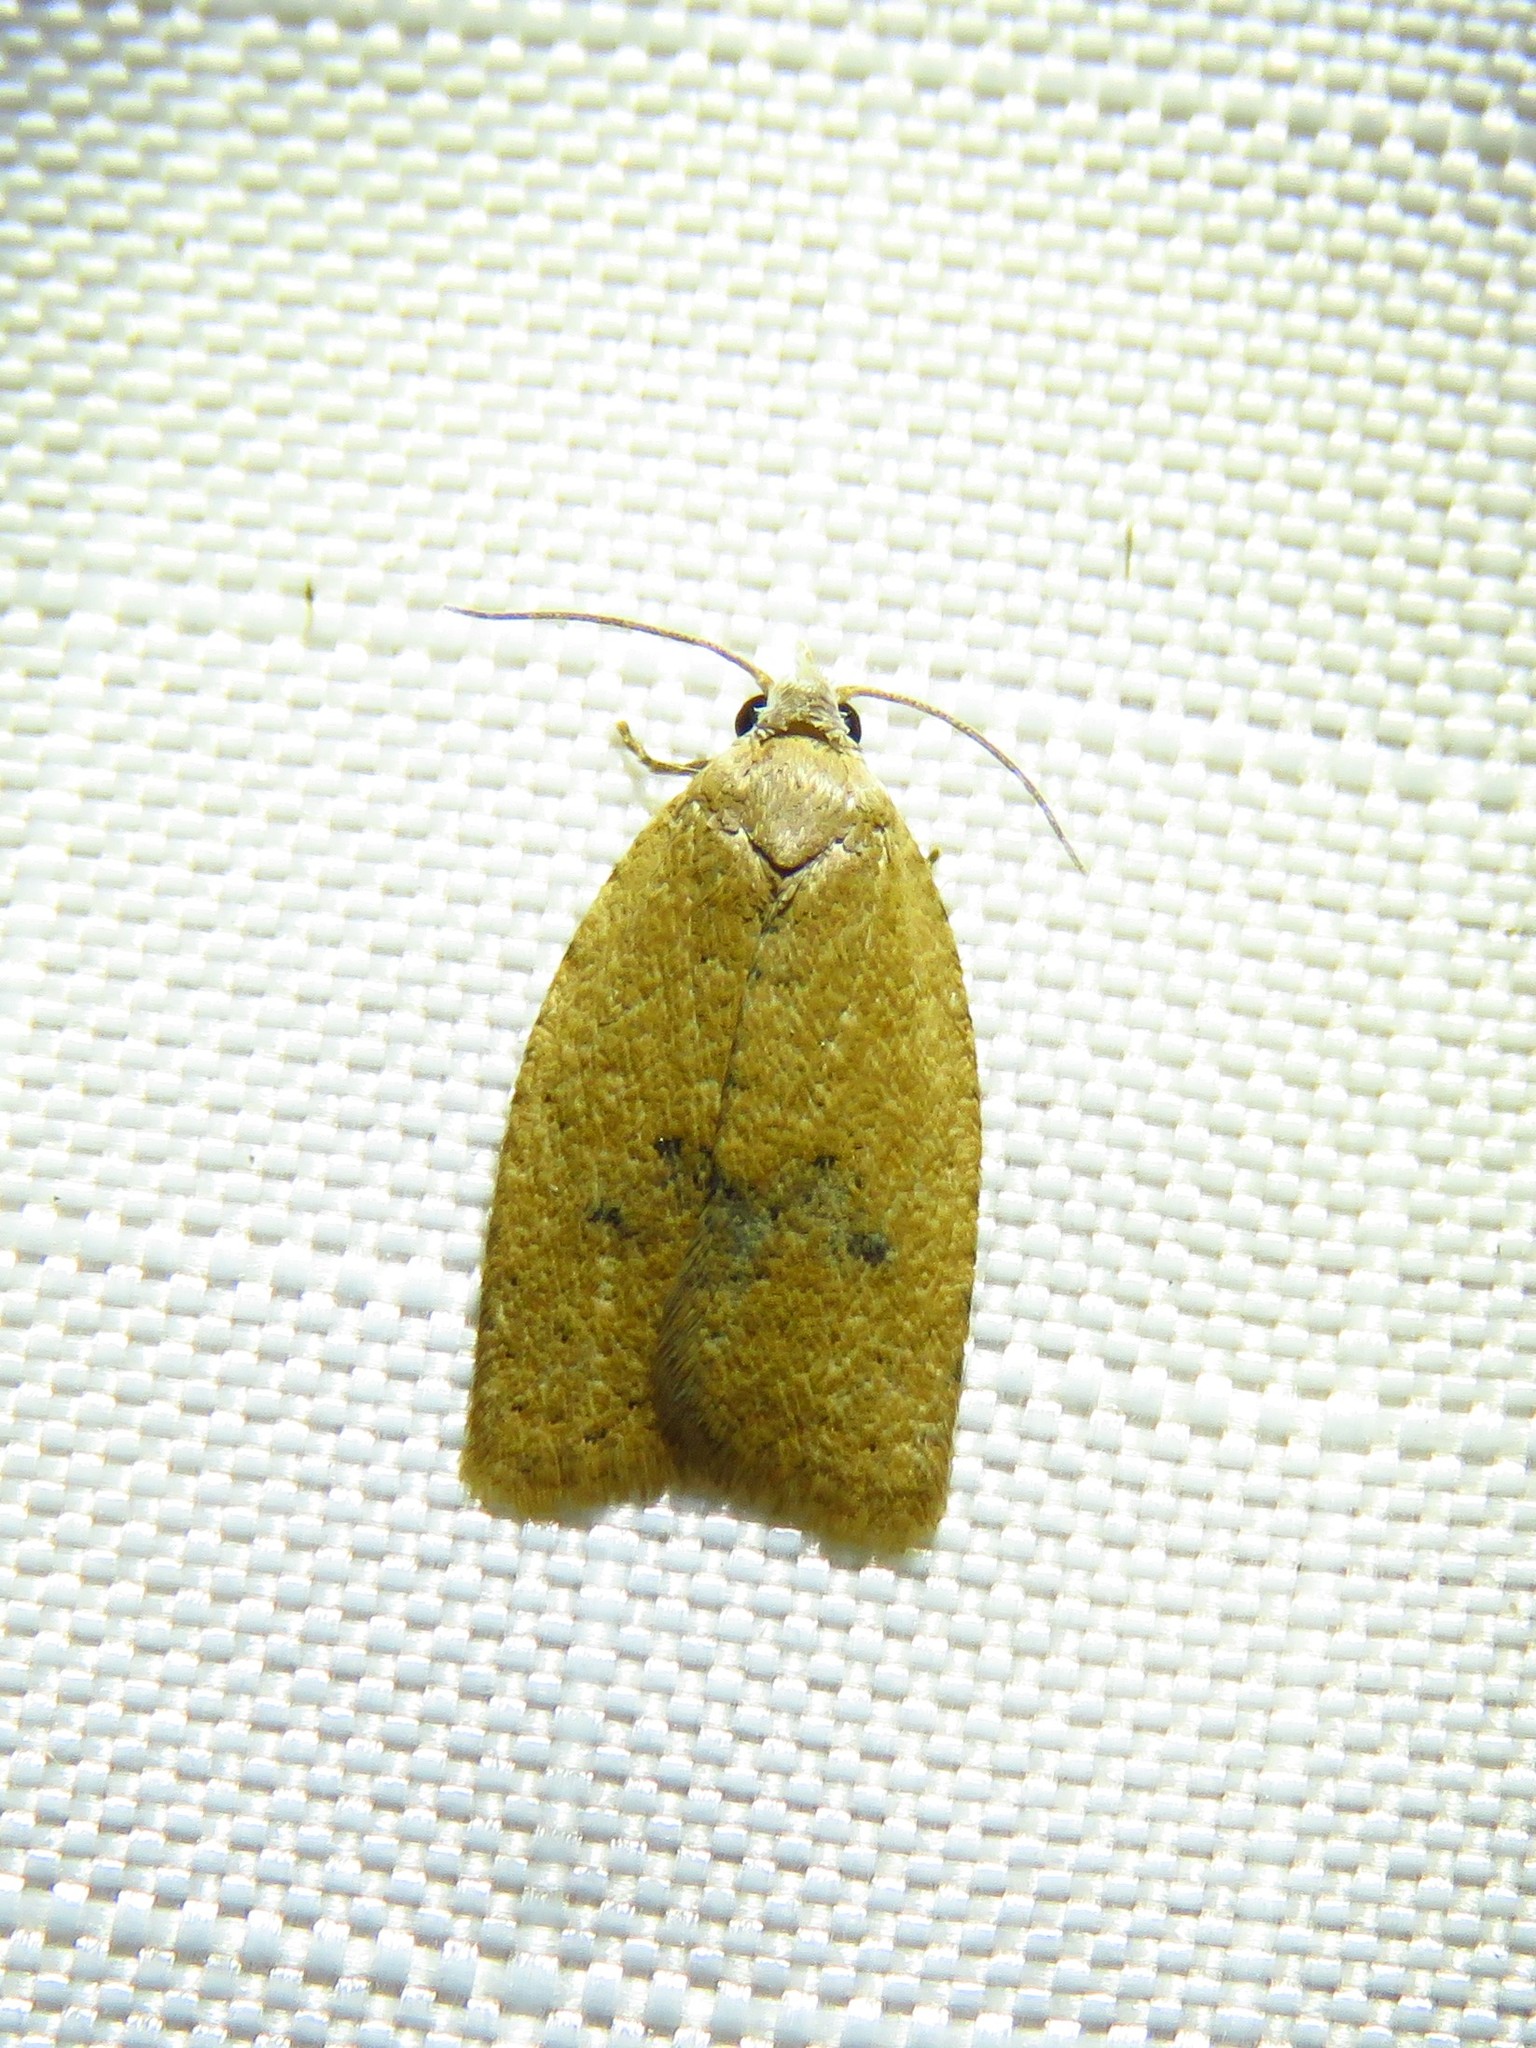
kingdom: Animalia
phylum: Arthropoda
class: Insecta
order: Lepidoptera
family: Tortricidae
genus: Sparganothoides
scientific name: Sparganothoides lentiginosana
